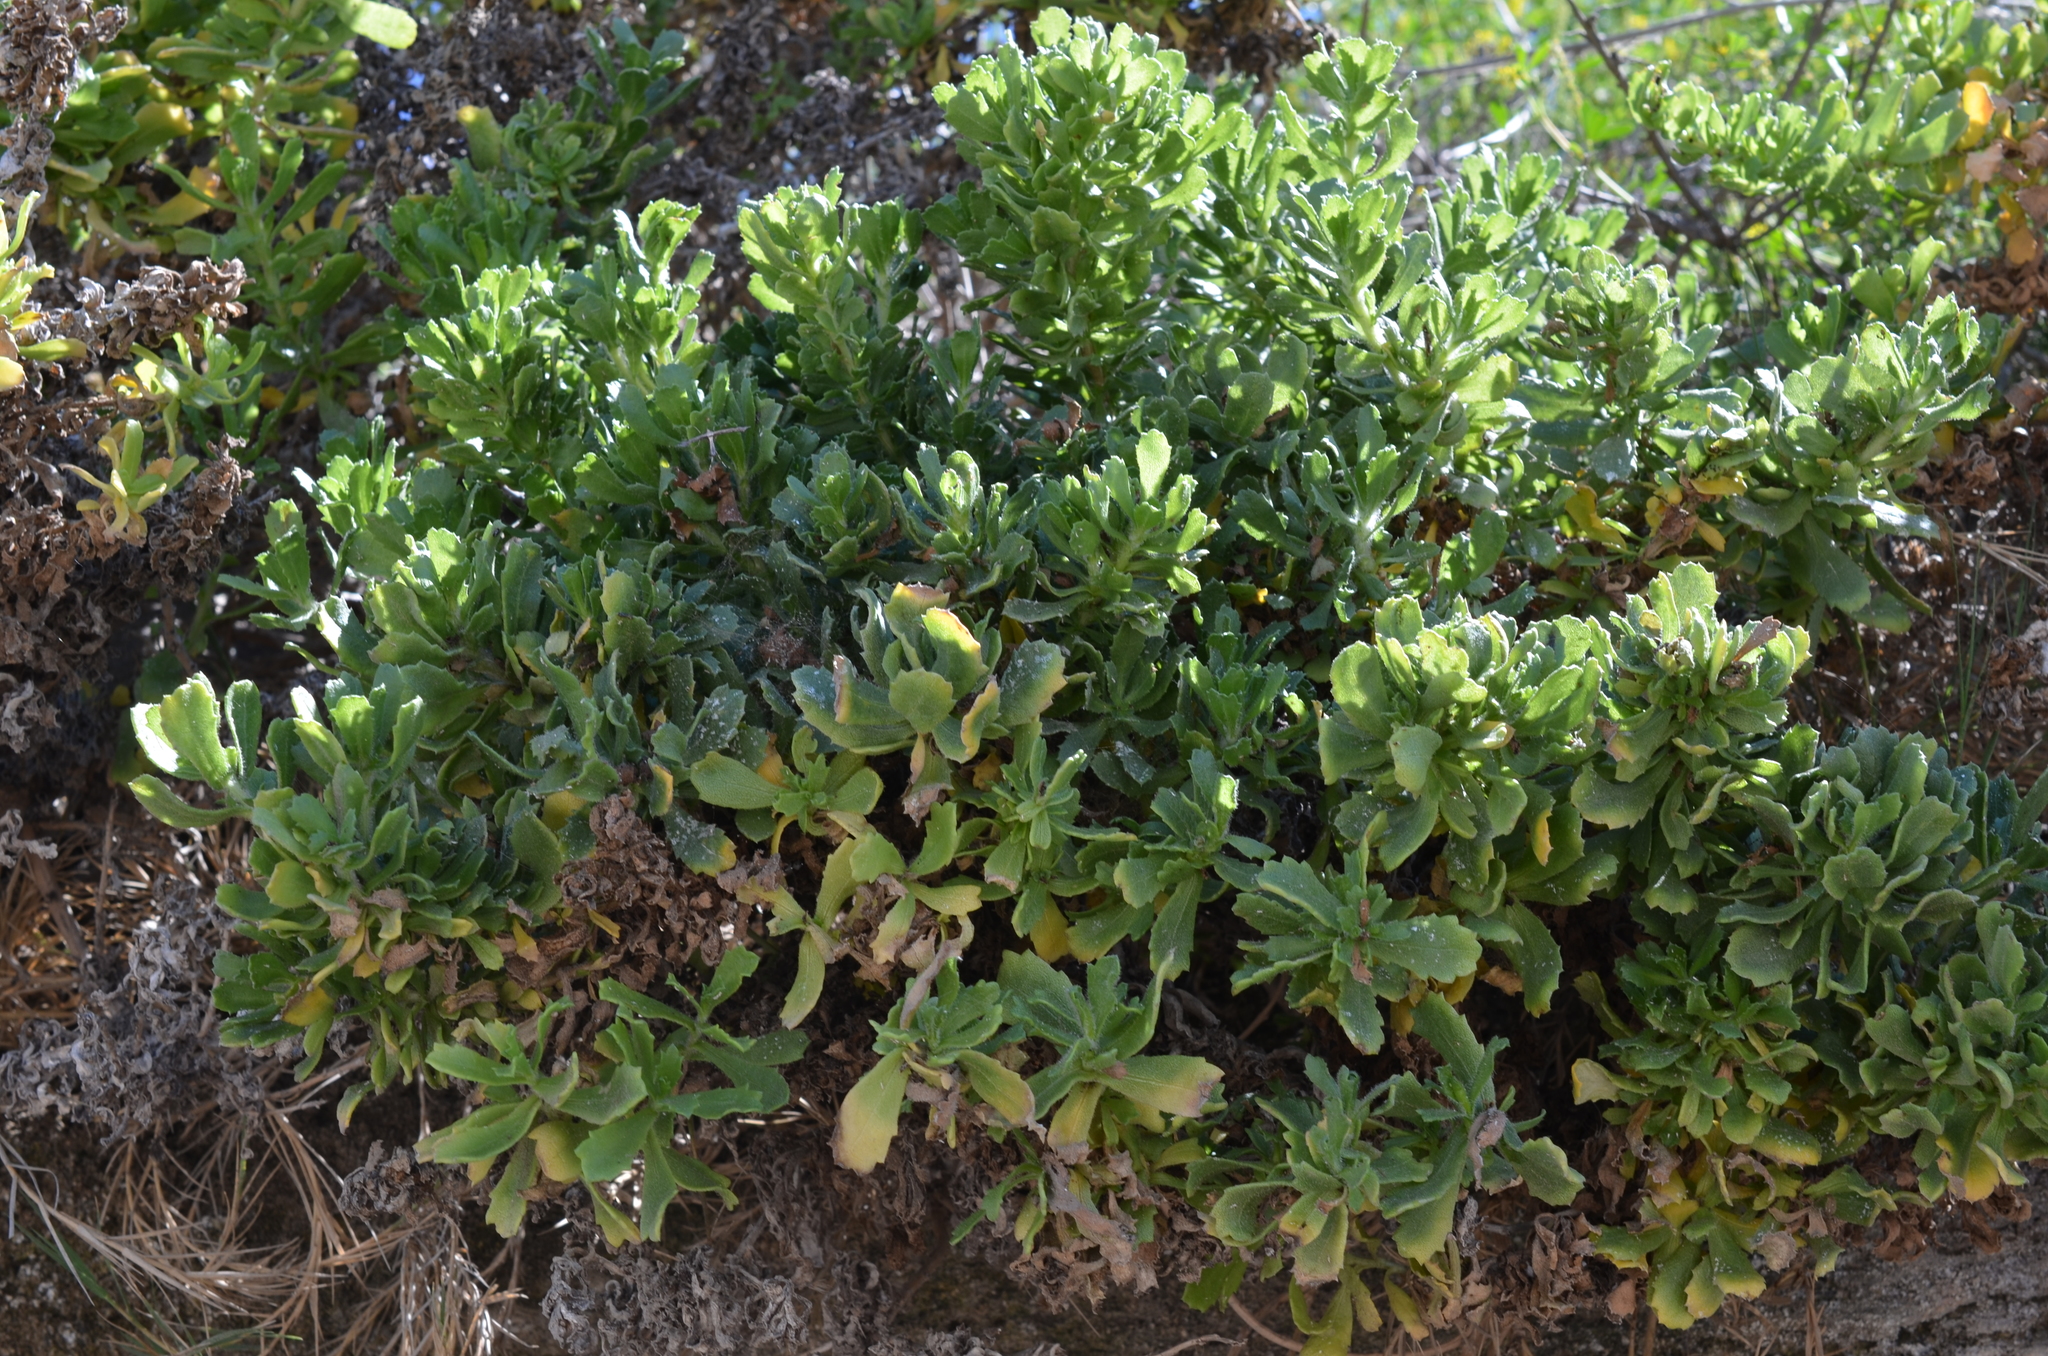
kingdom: Plantae
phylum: Tracheophyta
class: Magnoliopsida
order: Asterales
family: Asteraceae
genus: Isocoma
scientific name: Isocoma menziesii
